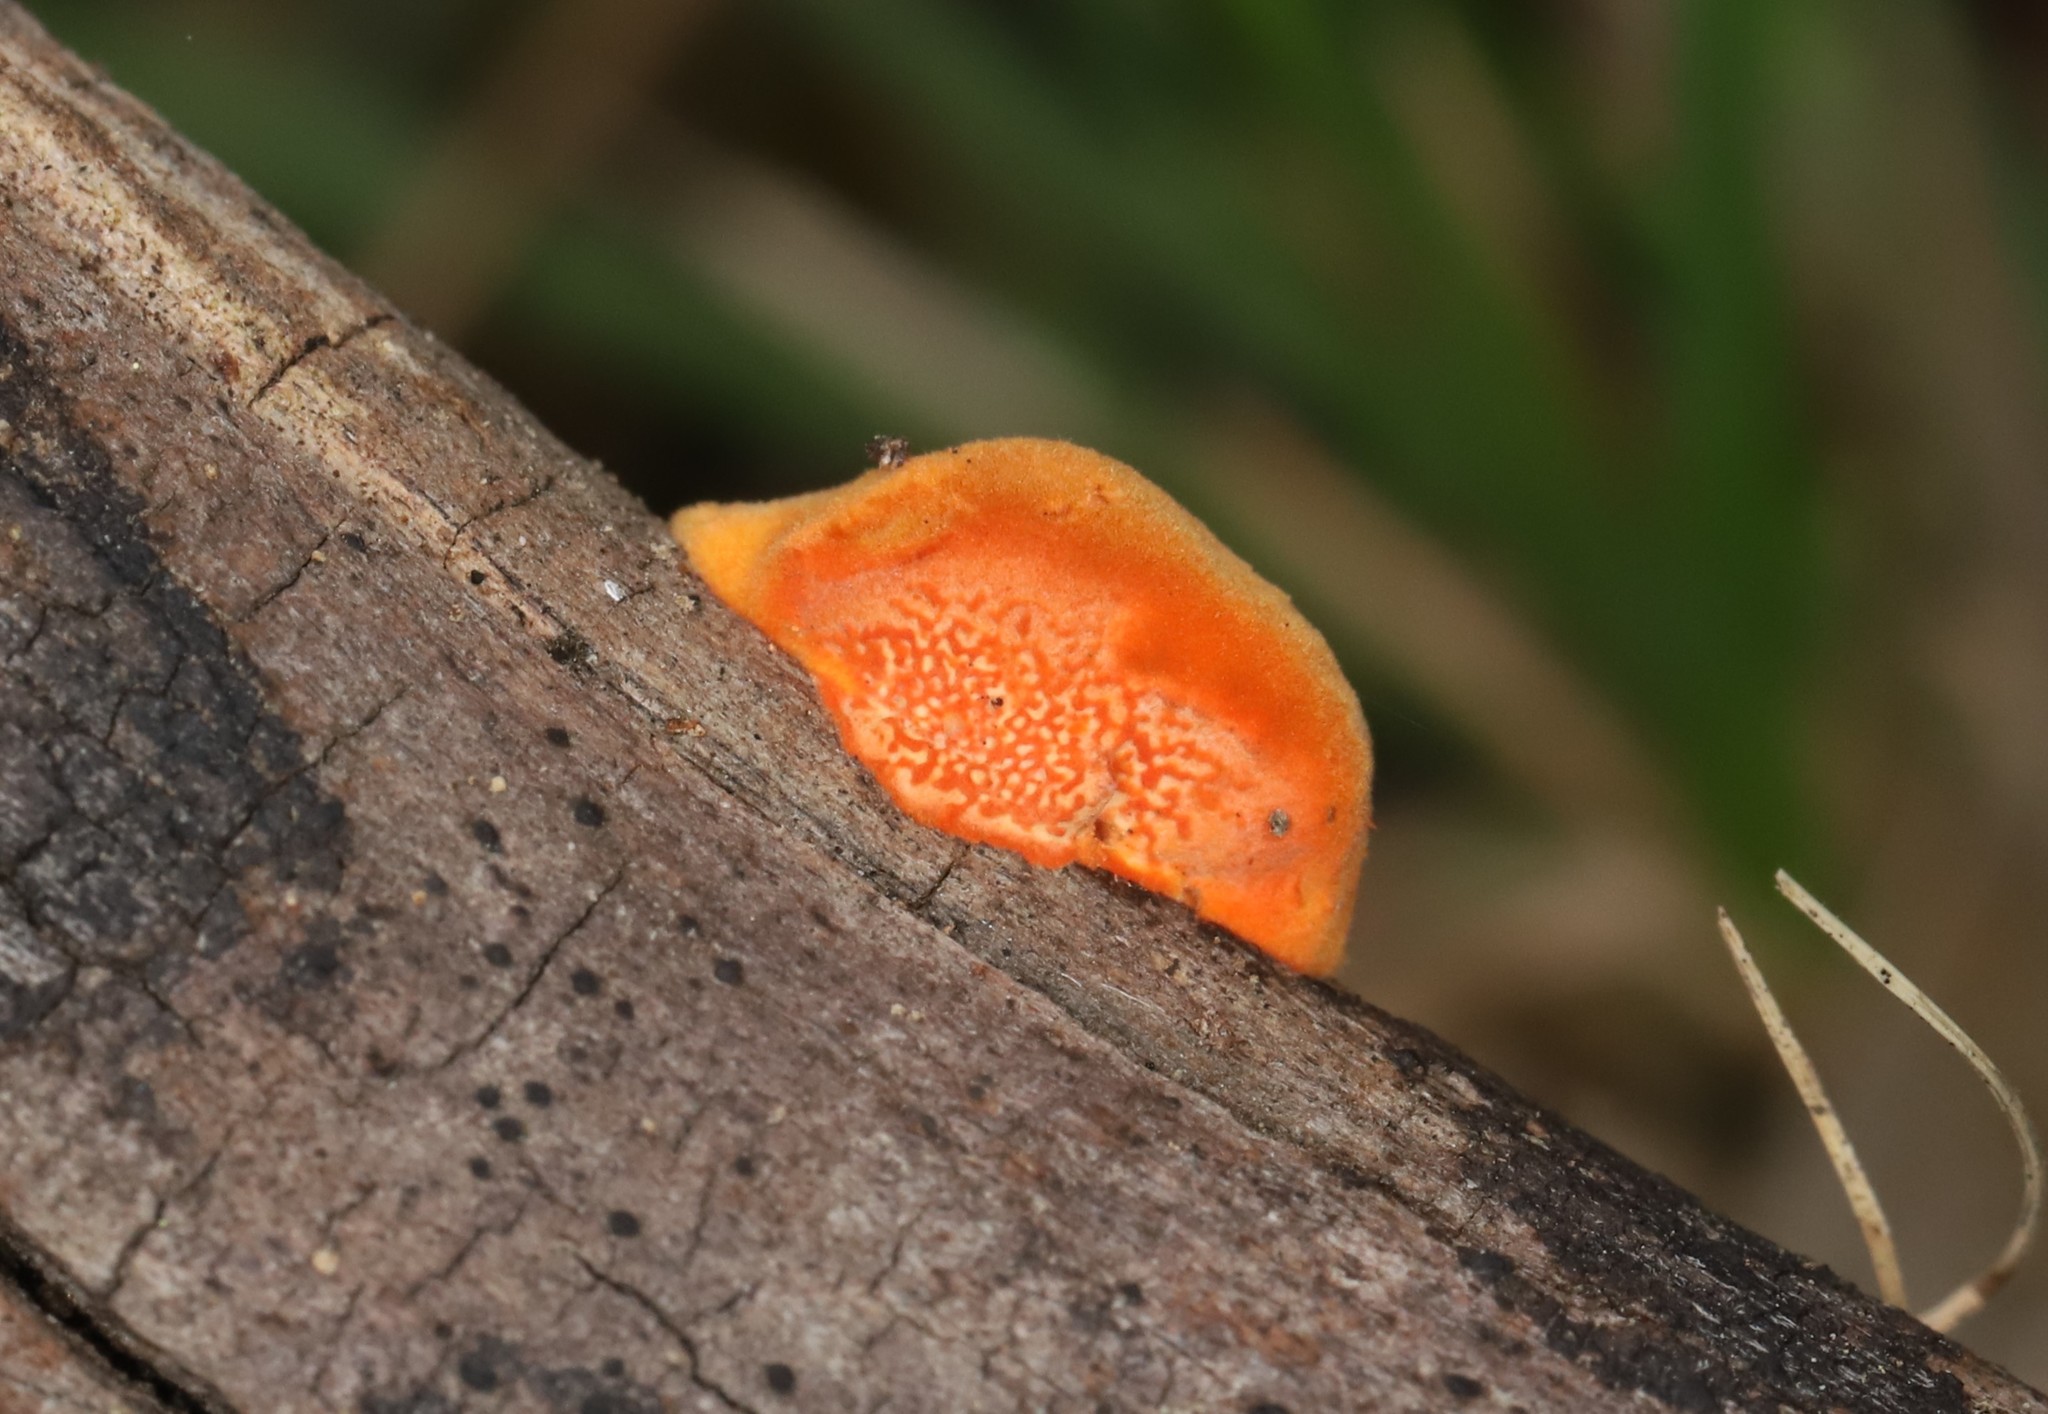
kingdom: Fungi
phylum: Basidiomycota
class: Agaricomycetes
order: Polyporales
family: Polyporaceae
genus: Trametes
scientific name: Trametes coccinea
